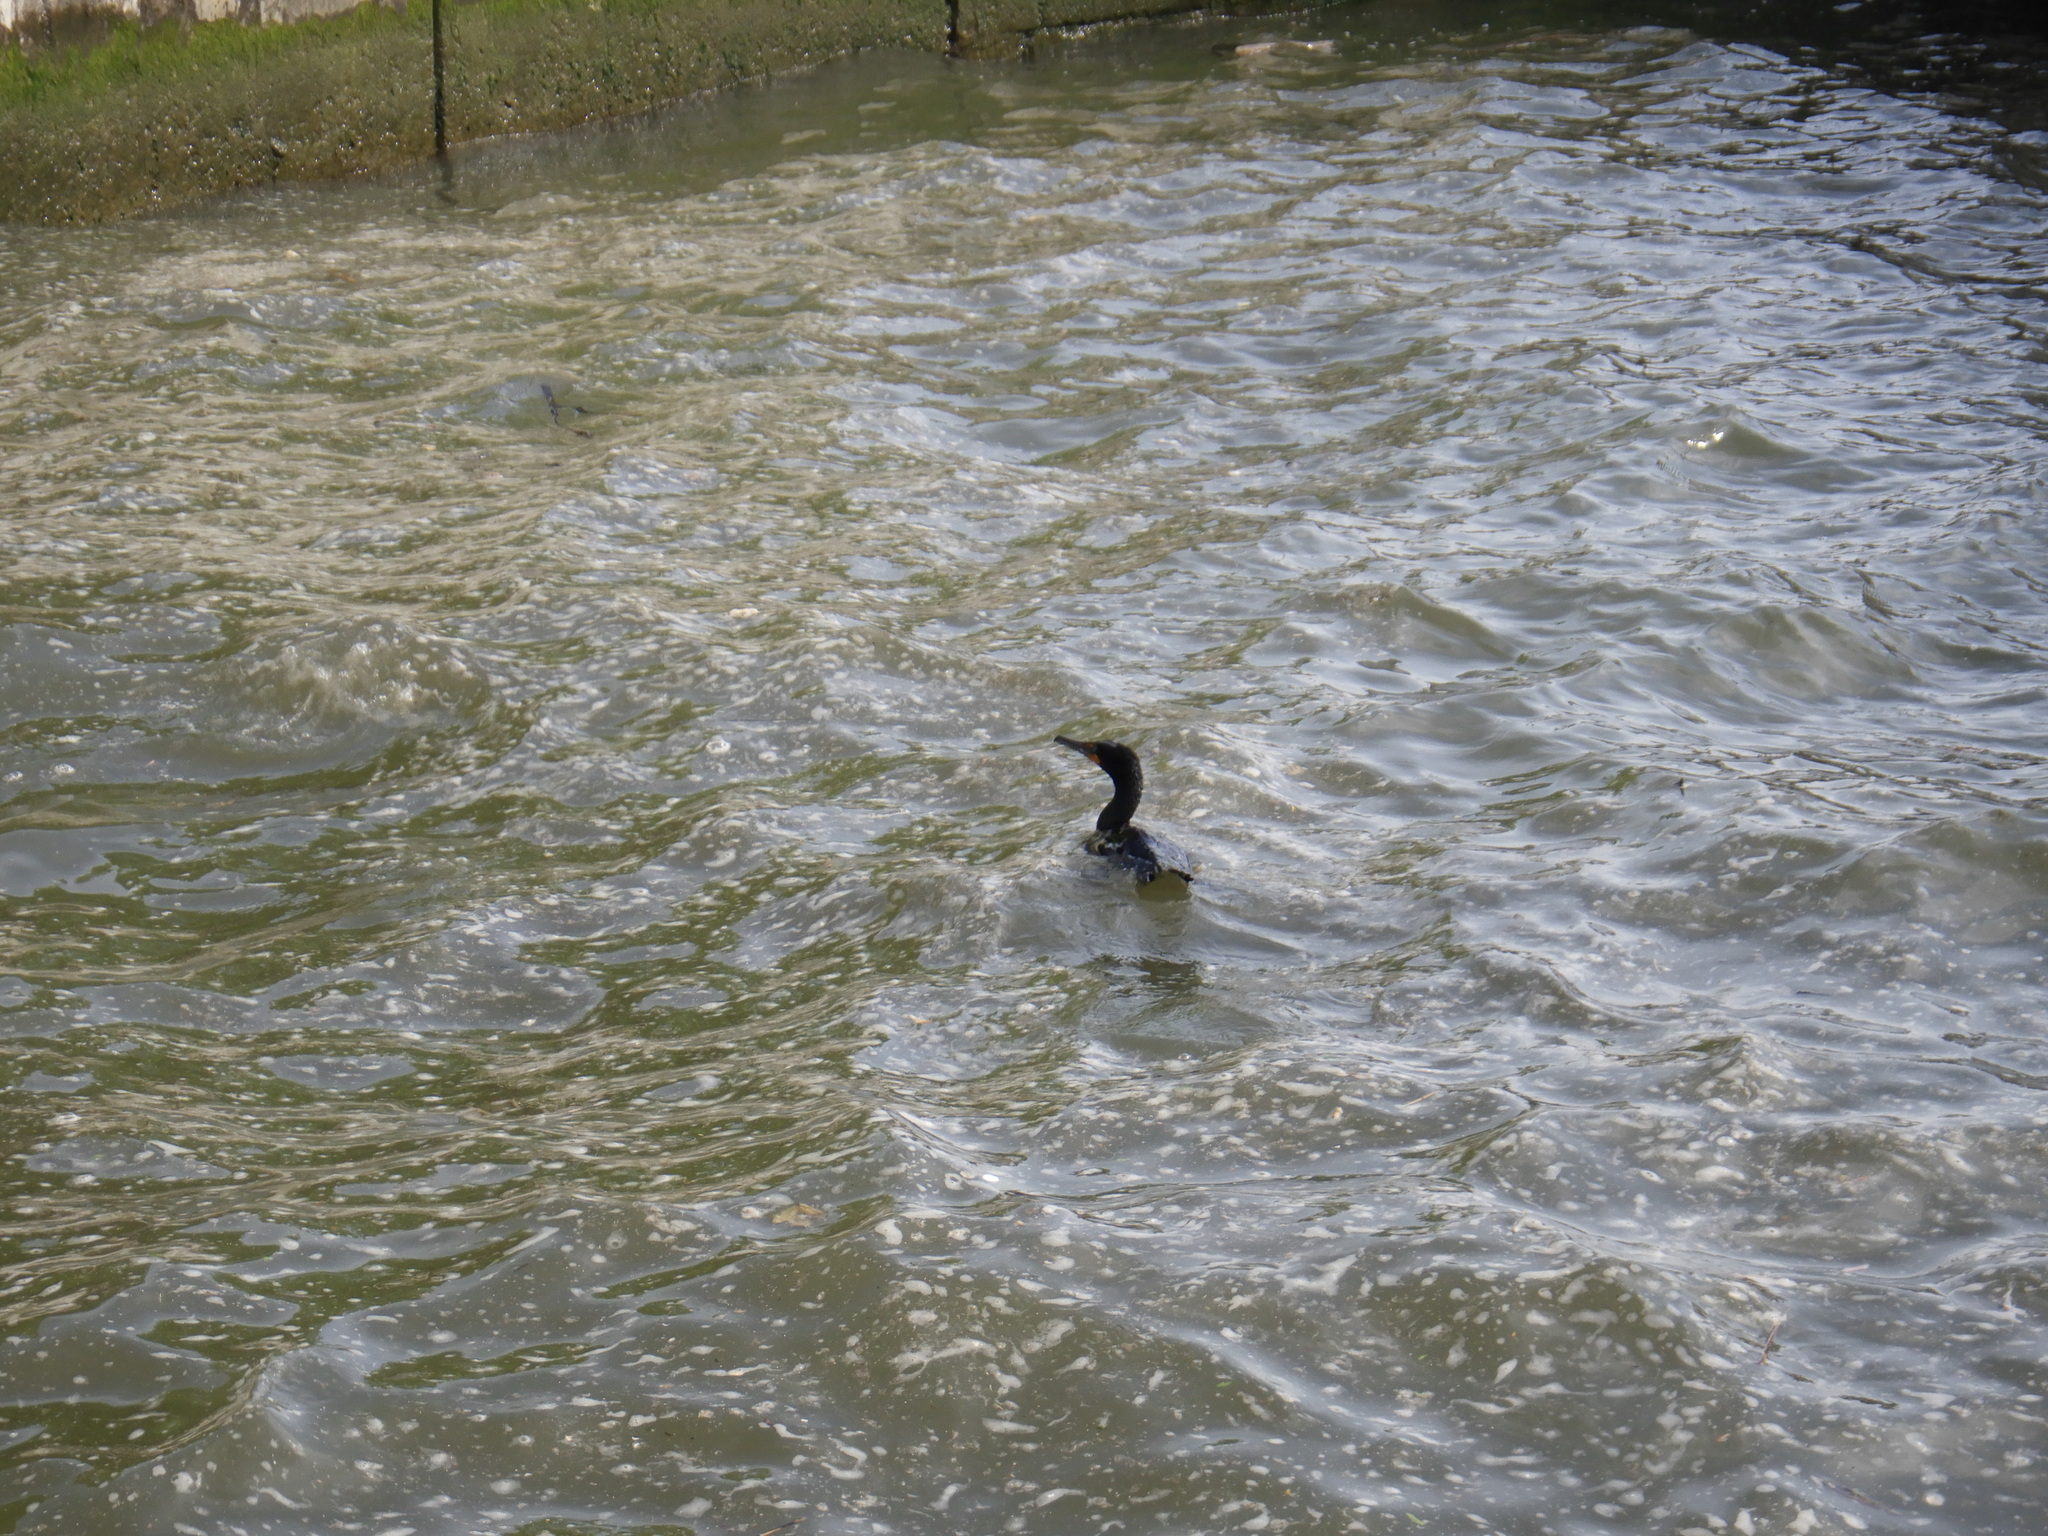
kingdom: Animalia
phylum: Chordata
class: Aves
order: Suliformes
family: Phalacrocoracidae
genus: Phalacrocorax
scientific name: Phalacrocorax auritus
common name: Double-crested cormorant
